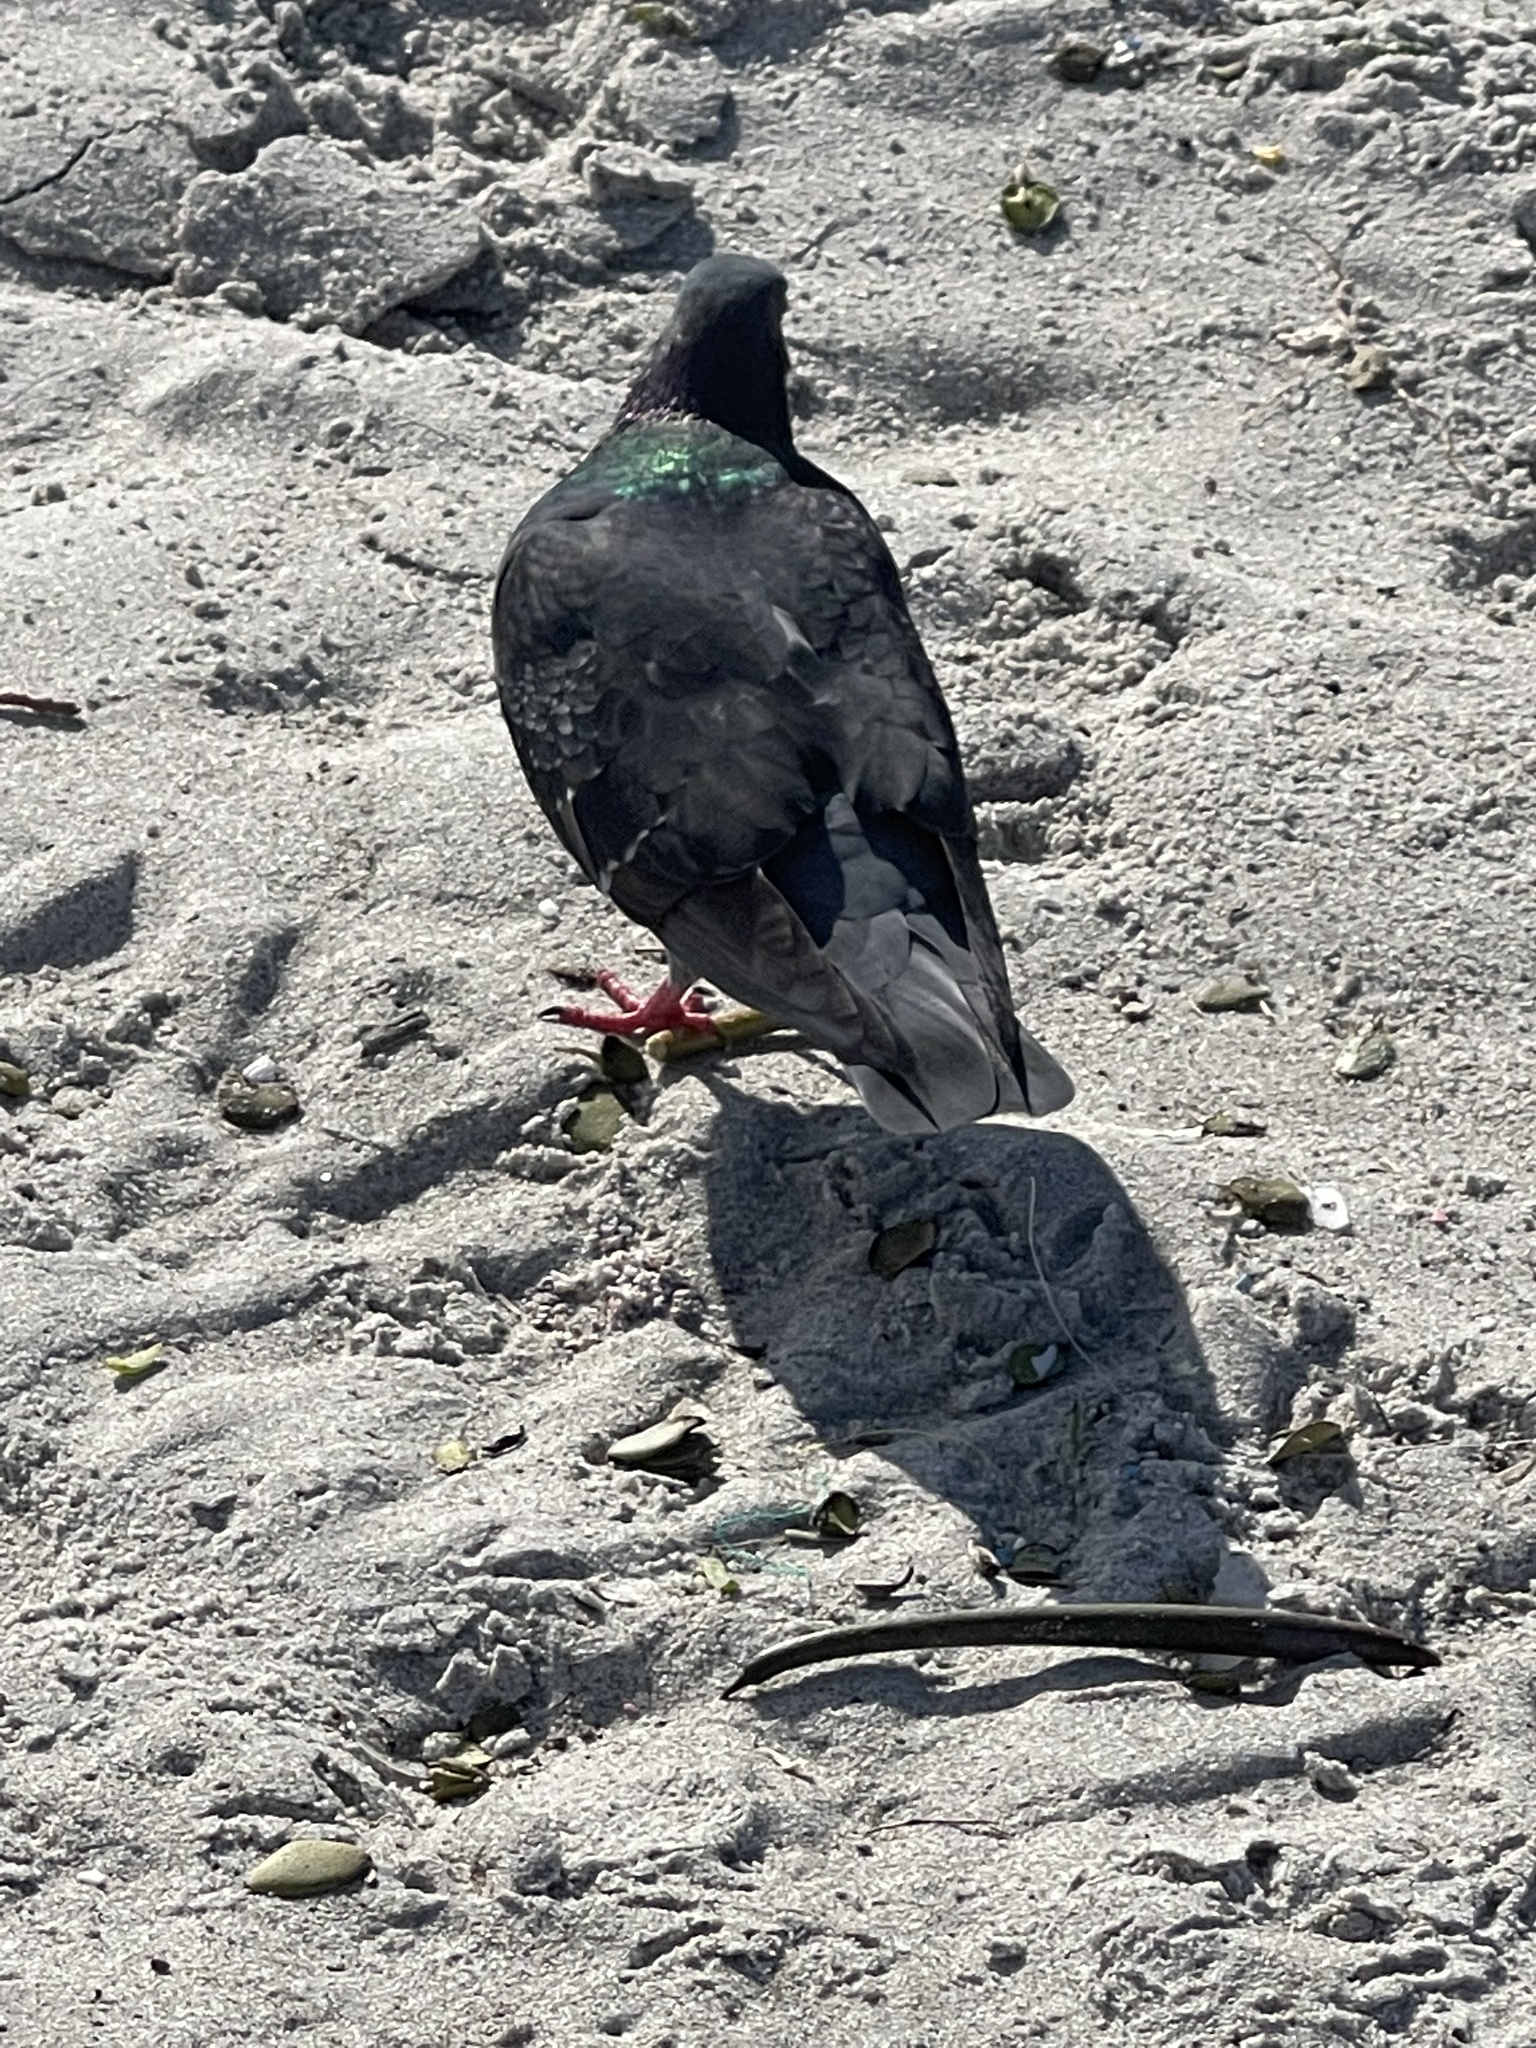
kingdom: Animalia
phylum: Chordata
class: Aves
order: Columbiformes
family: Columbidae
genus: Columba
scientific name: Columba livia
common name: Rock pigeon
